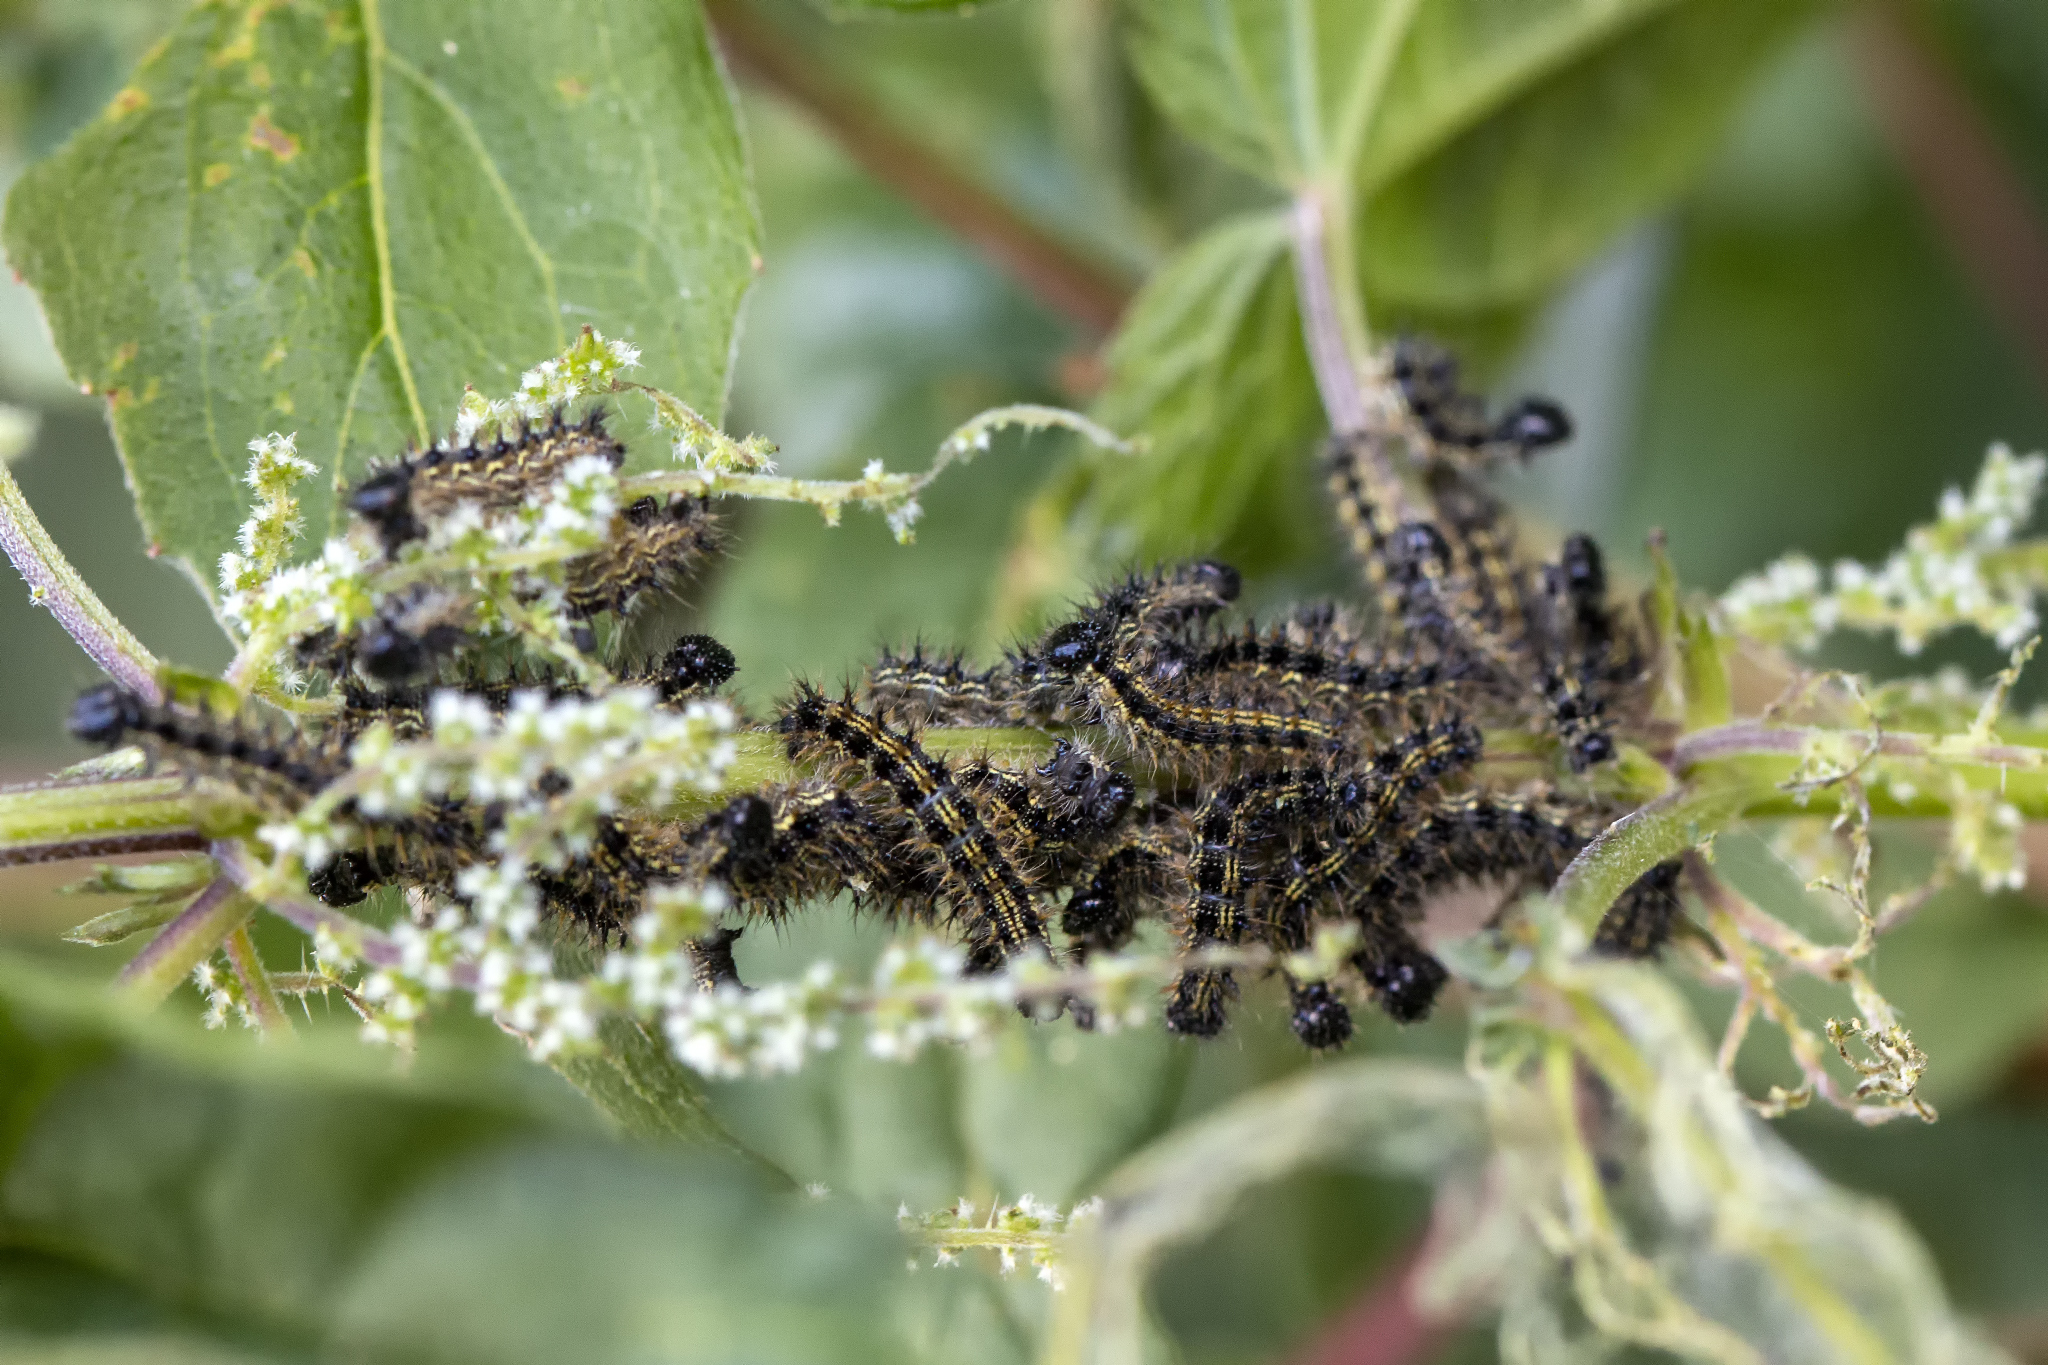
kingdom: Animalia
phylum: Arthropoda
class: Insecta
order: Lepidoptera
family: Nymphalidae
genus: Aglais
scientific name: Aglais urticae
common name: Small tortoiseshell
